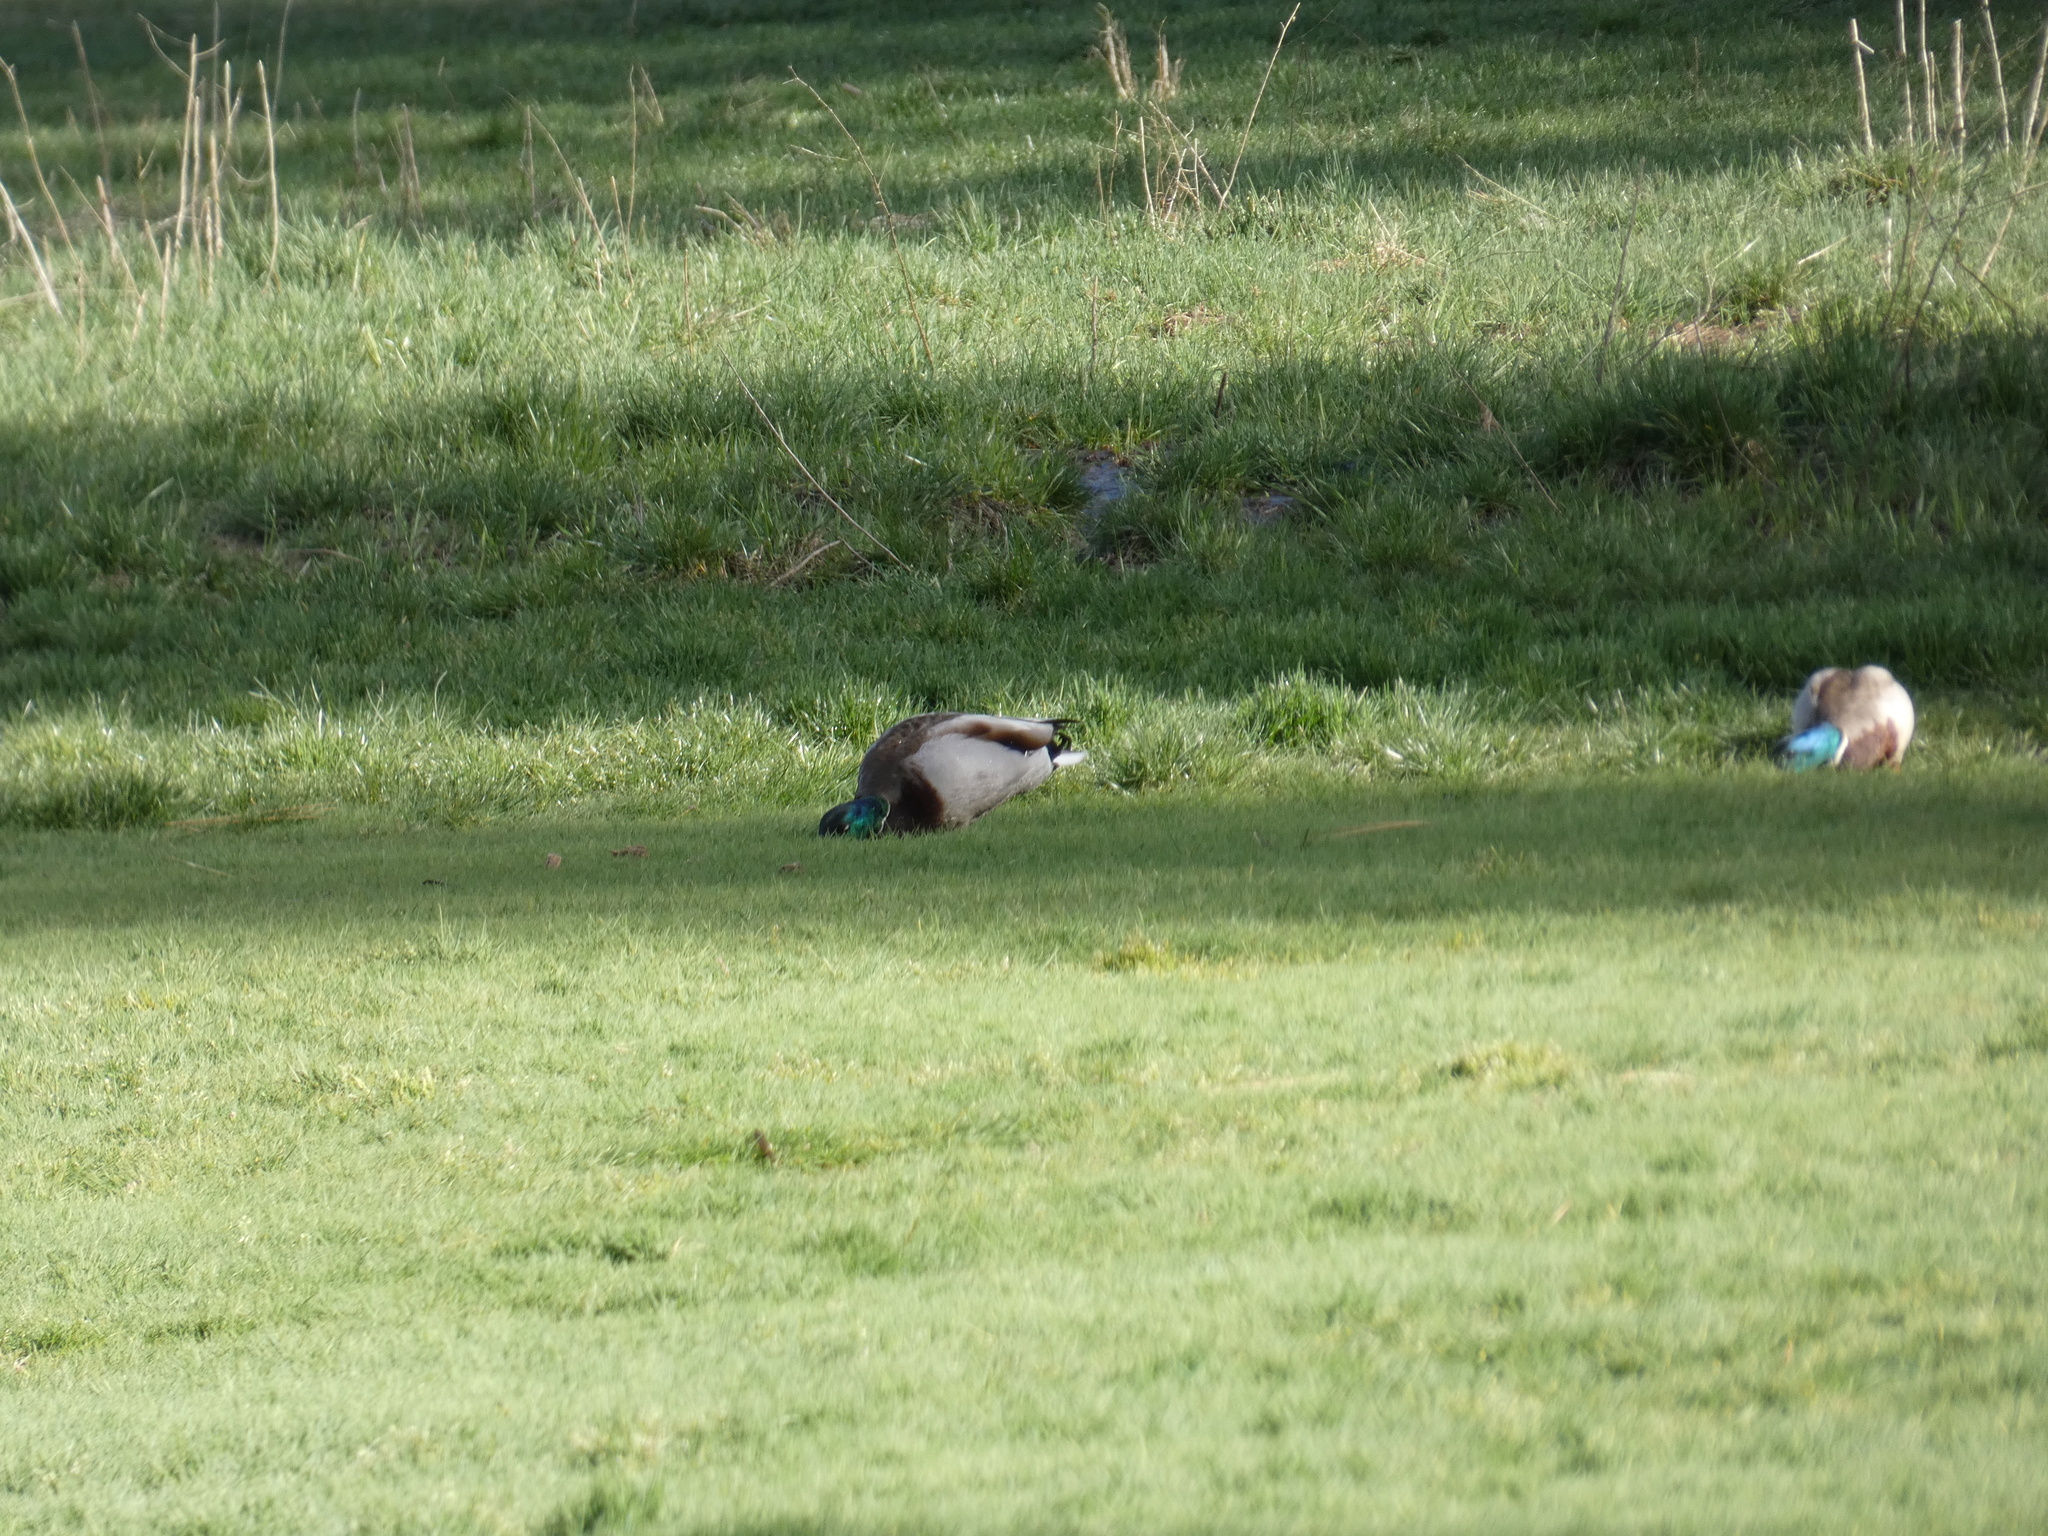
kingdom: Animalia
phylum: Chordata
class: Aves
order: Anseriformes
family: Anatidae
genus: Anas
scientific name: Anas platyrhynchos
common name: Mallard
